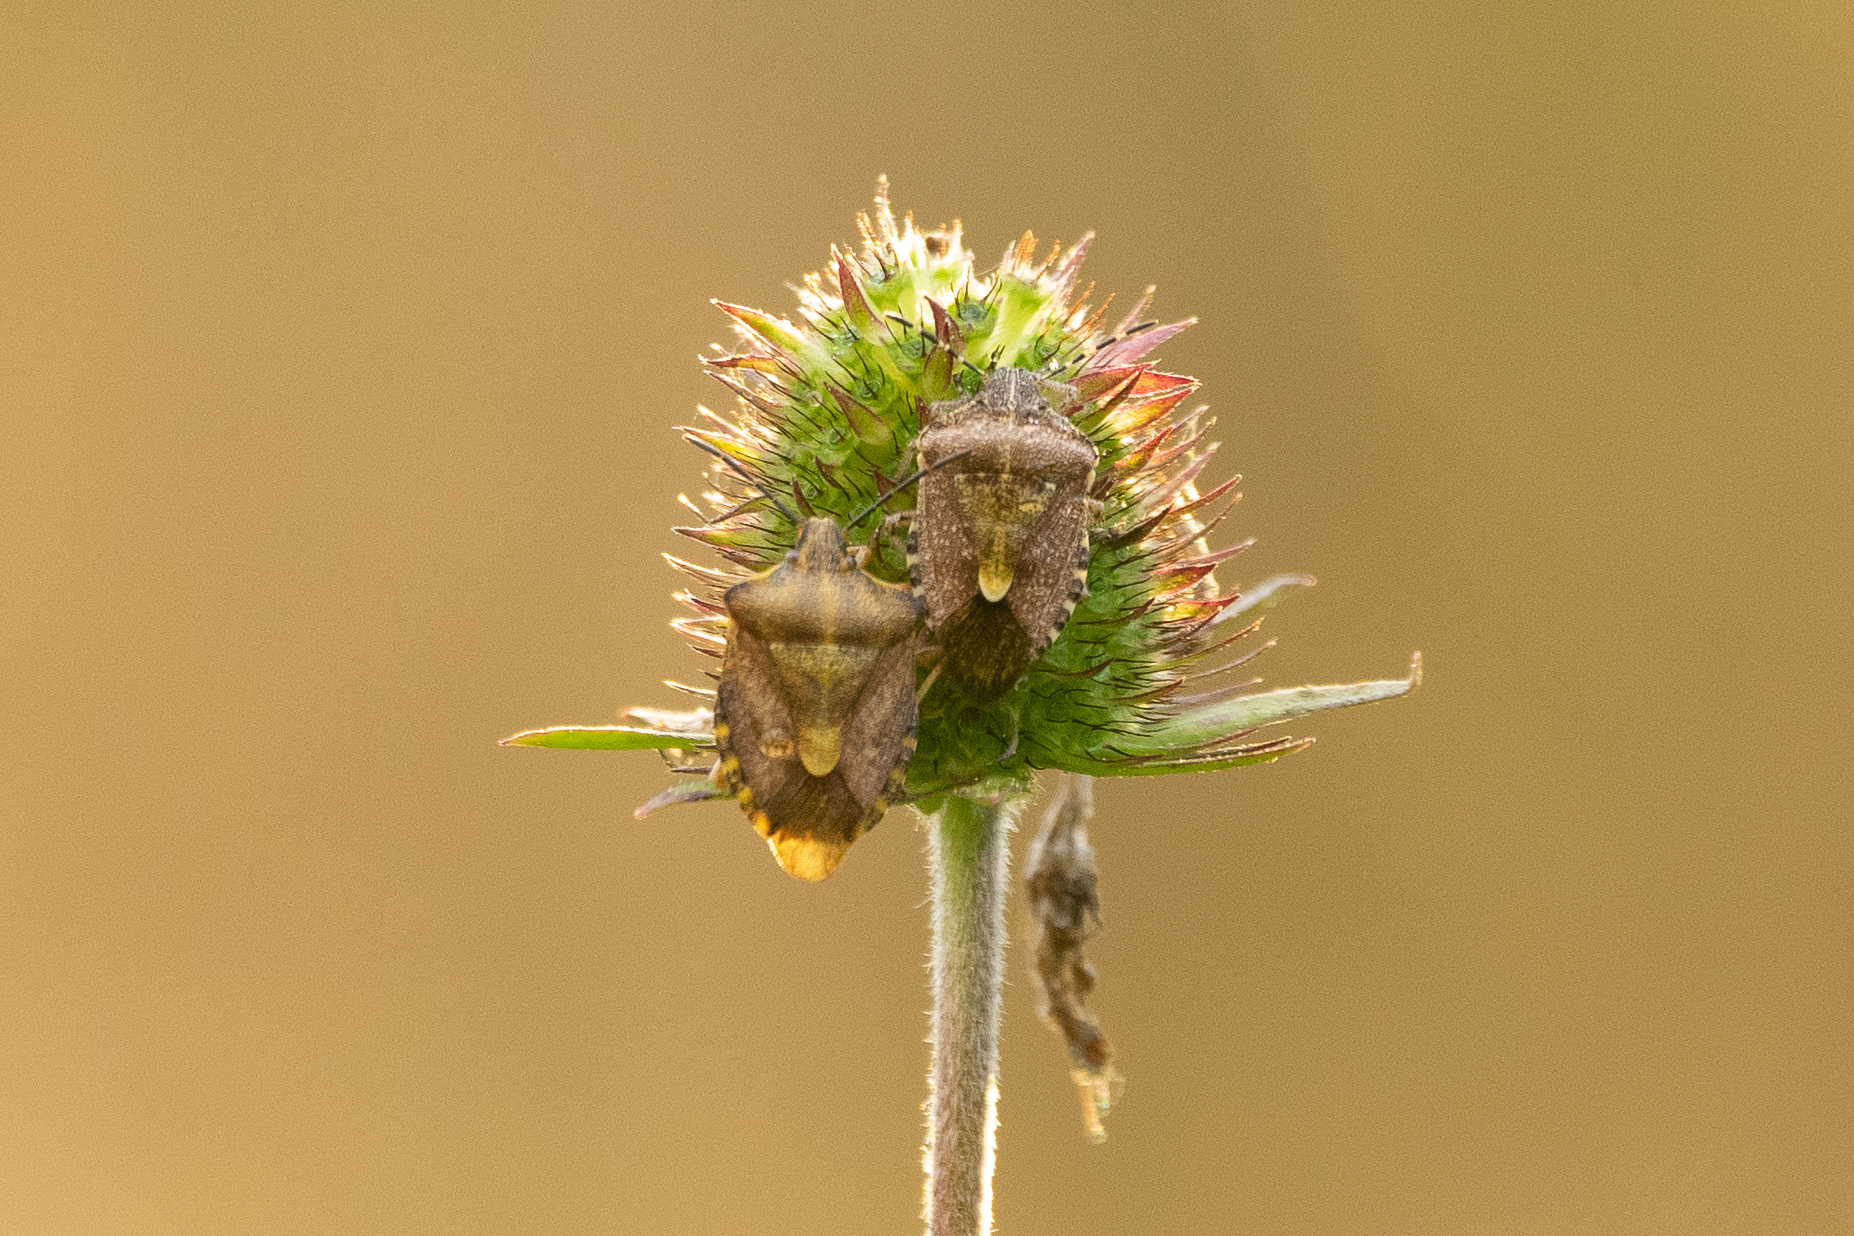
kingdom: Animalia
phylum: Arthropoda
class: Insecta
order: Hemiptera
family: Pentatomidae
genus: Carpocoris
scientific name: Carpocoris purpureipennis
